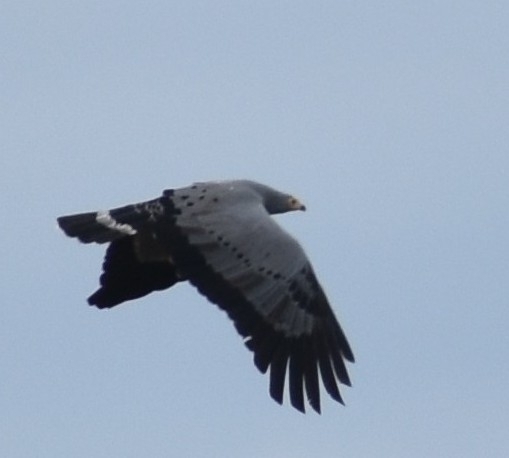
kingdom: Animalia
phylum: Chordata
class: Aves
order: Accipitriformes
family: Accipitridae
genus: Polyboroides
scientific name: Polyboroides typus
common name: African harrier-hawk
